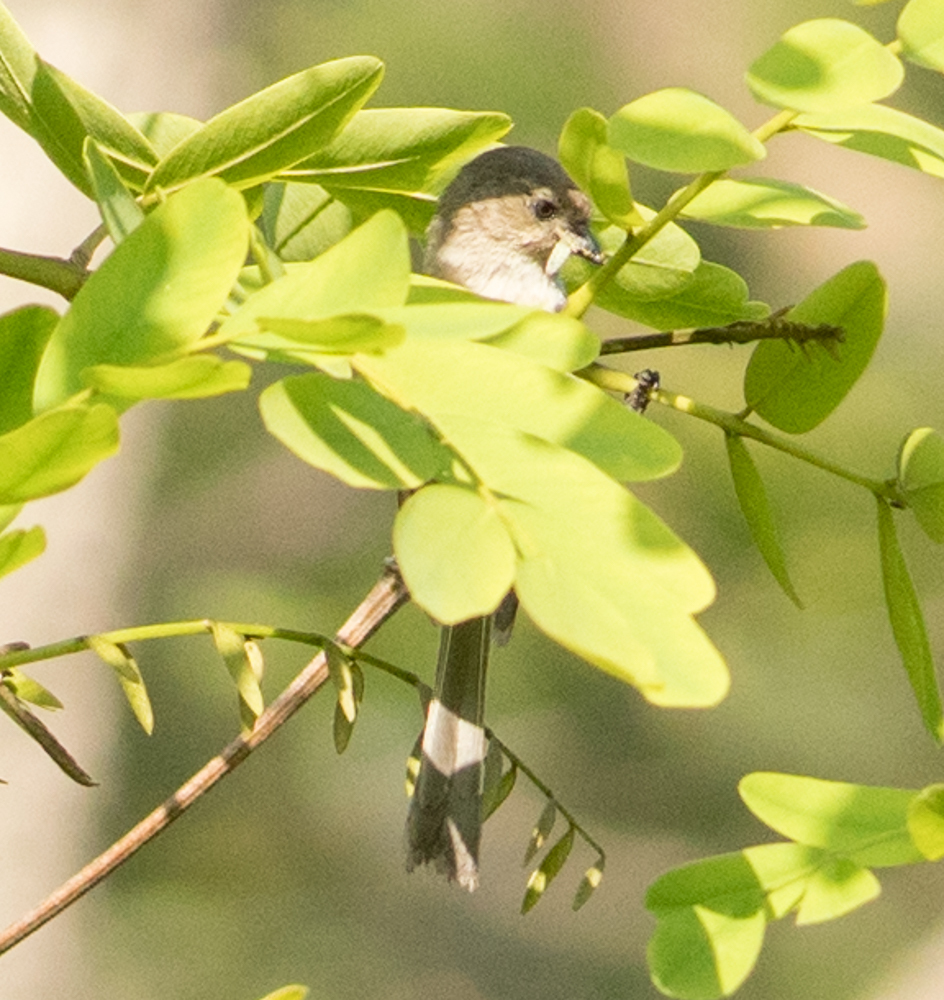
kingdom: Animalia
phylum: Chordata
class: Aves
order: Passeriformes
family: Aegithalidae
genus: Psaltriparus
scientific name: Psaltriparus minimus
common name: American bushtit
